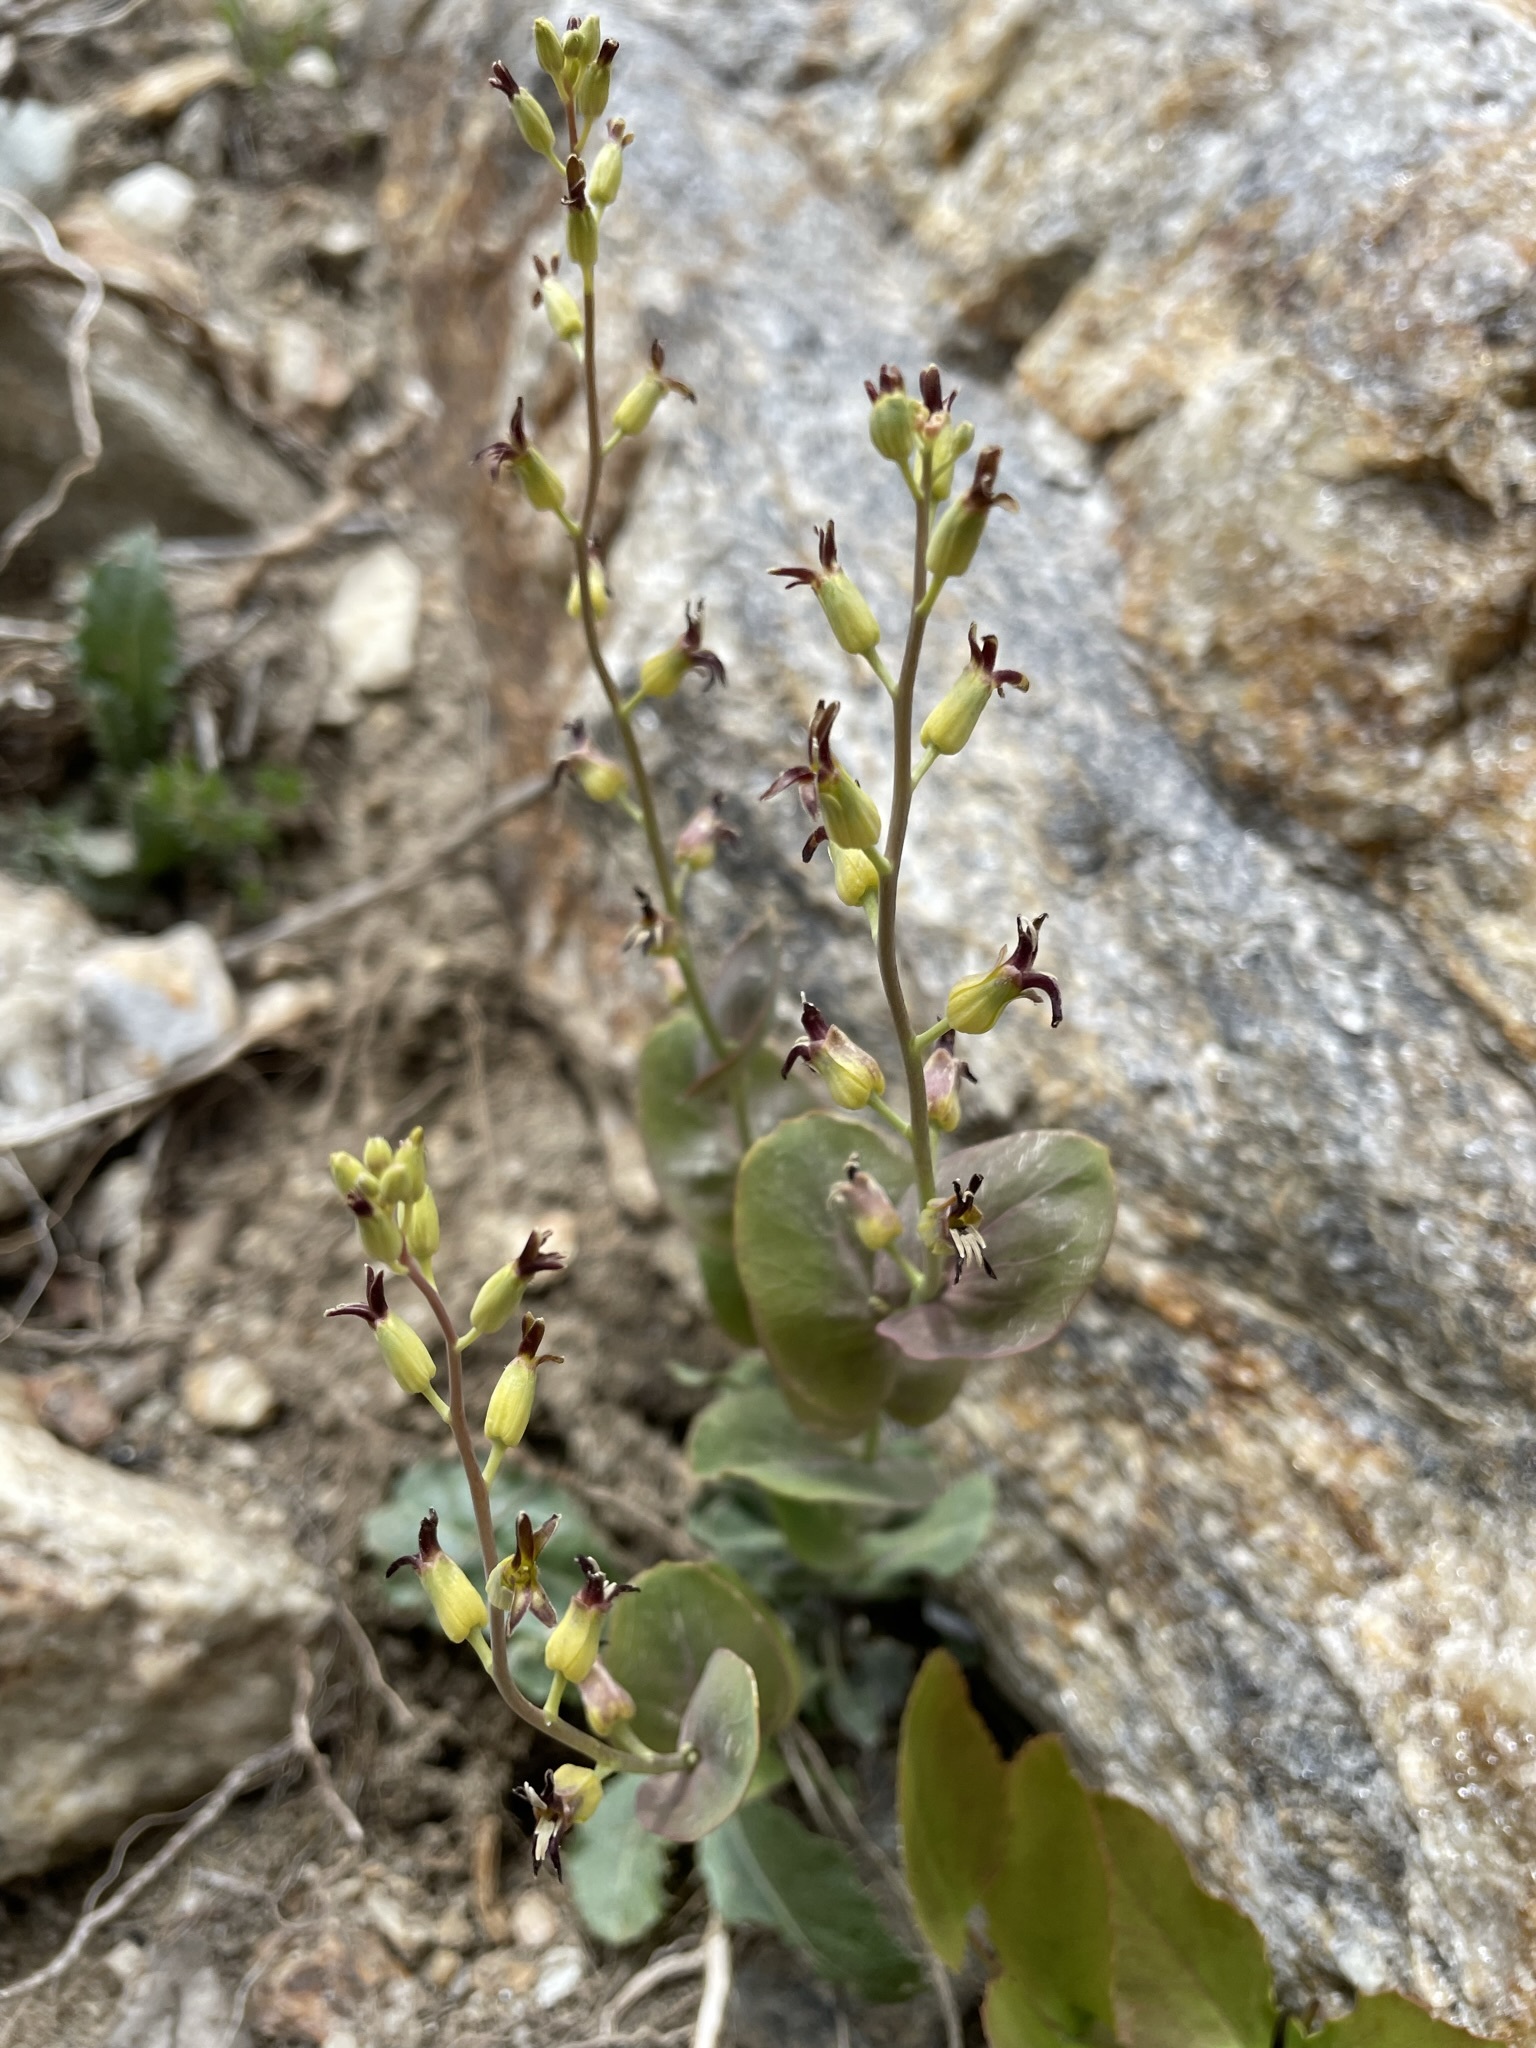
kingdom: Plantae
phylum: Tracheophyta
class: Magnoliopsida
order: Brassicales
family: Brassicaceae
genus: Streptanthus
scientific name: Streptanthus cordatus
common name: Heart-leaf jewel-flower
